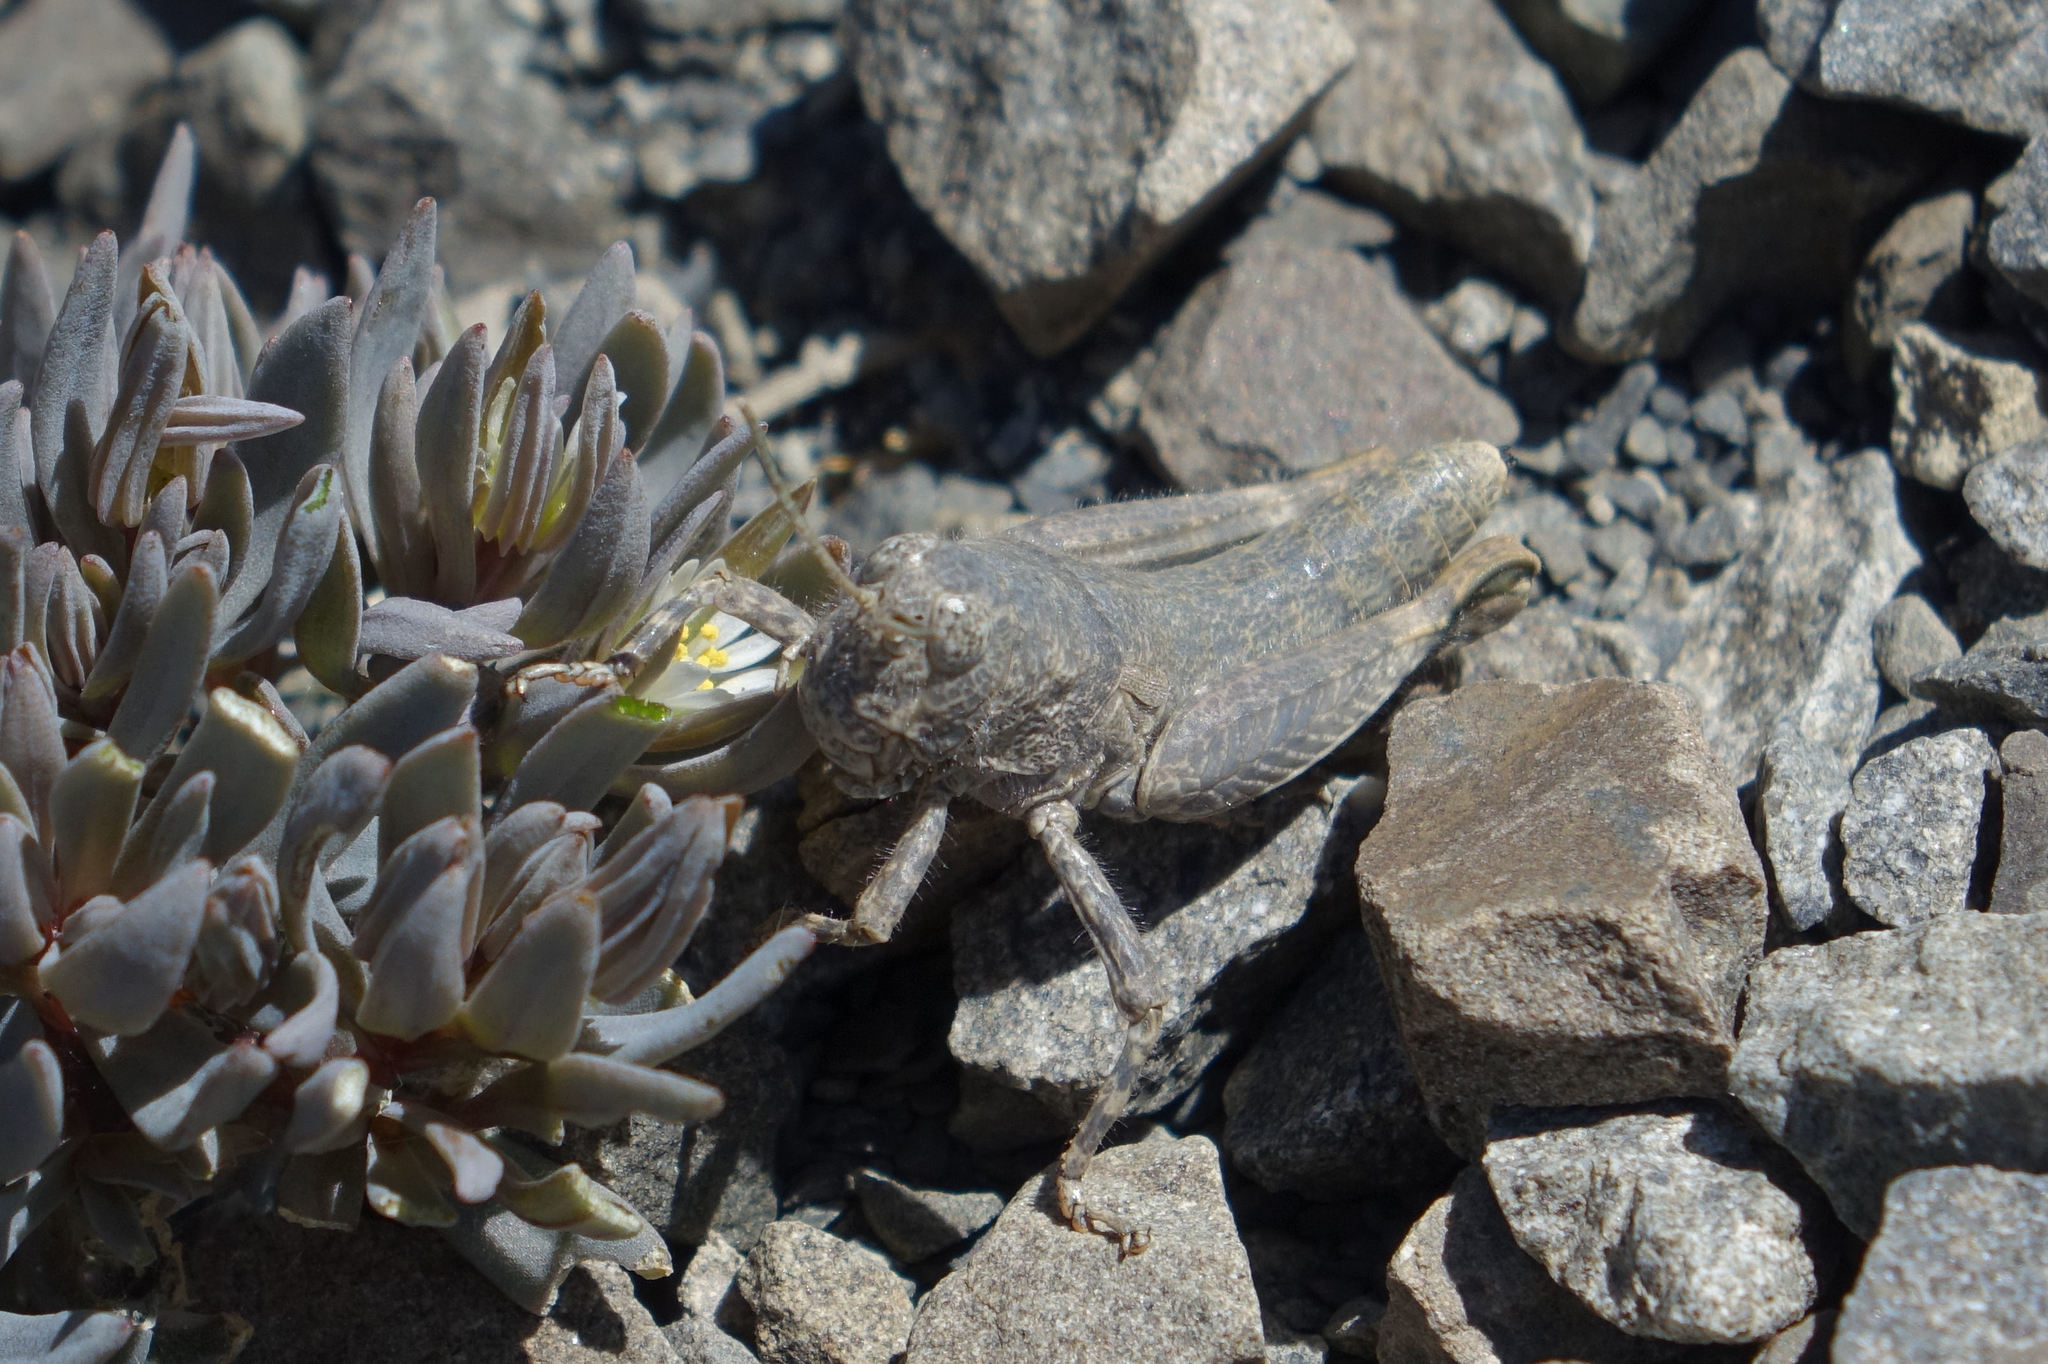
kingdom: Animalia
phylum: Arthropoda
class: Insecta
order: Orthoptera
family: Acrididae
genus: Sigaus
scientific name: Sigaus
